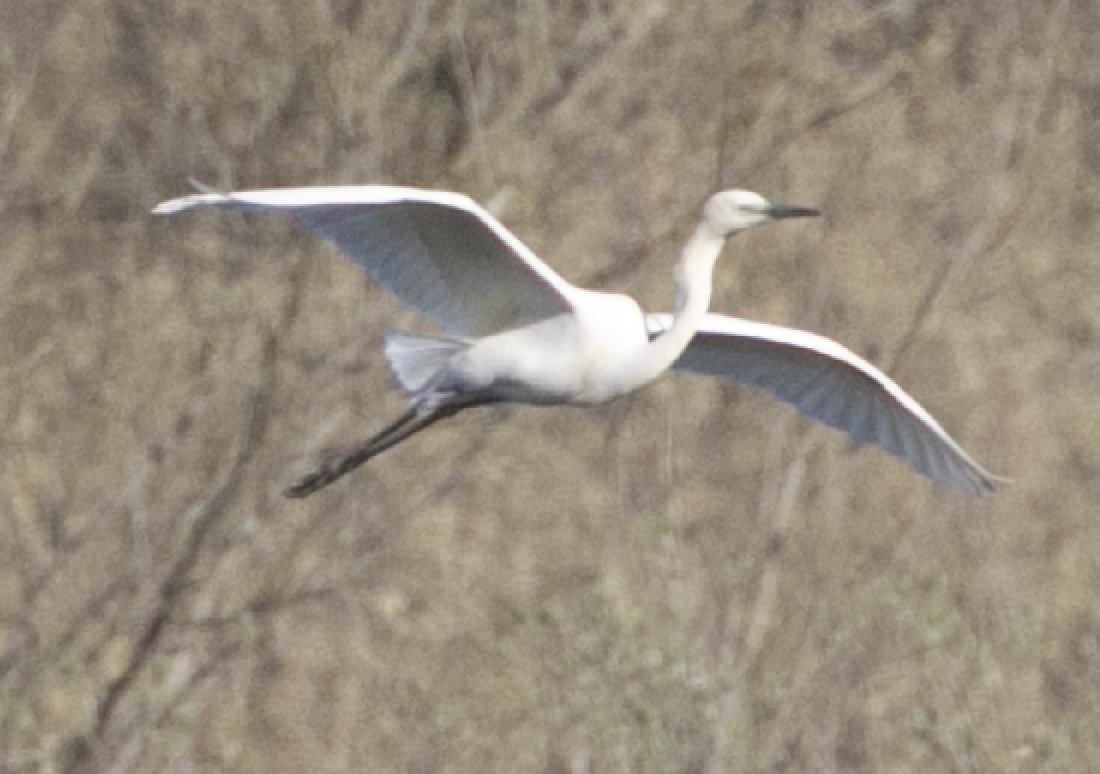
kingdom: Animalia
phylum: Chordata
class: Aves
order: Pelecaniformes
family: Ardeidae
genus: Ardea
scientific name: Ardea alba
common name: Great egret
